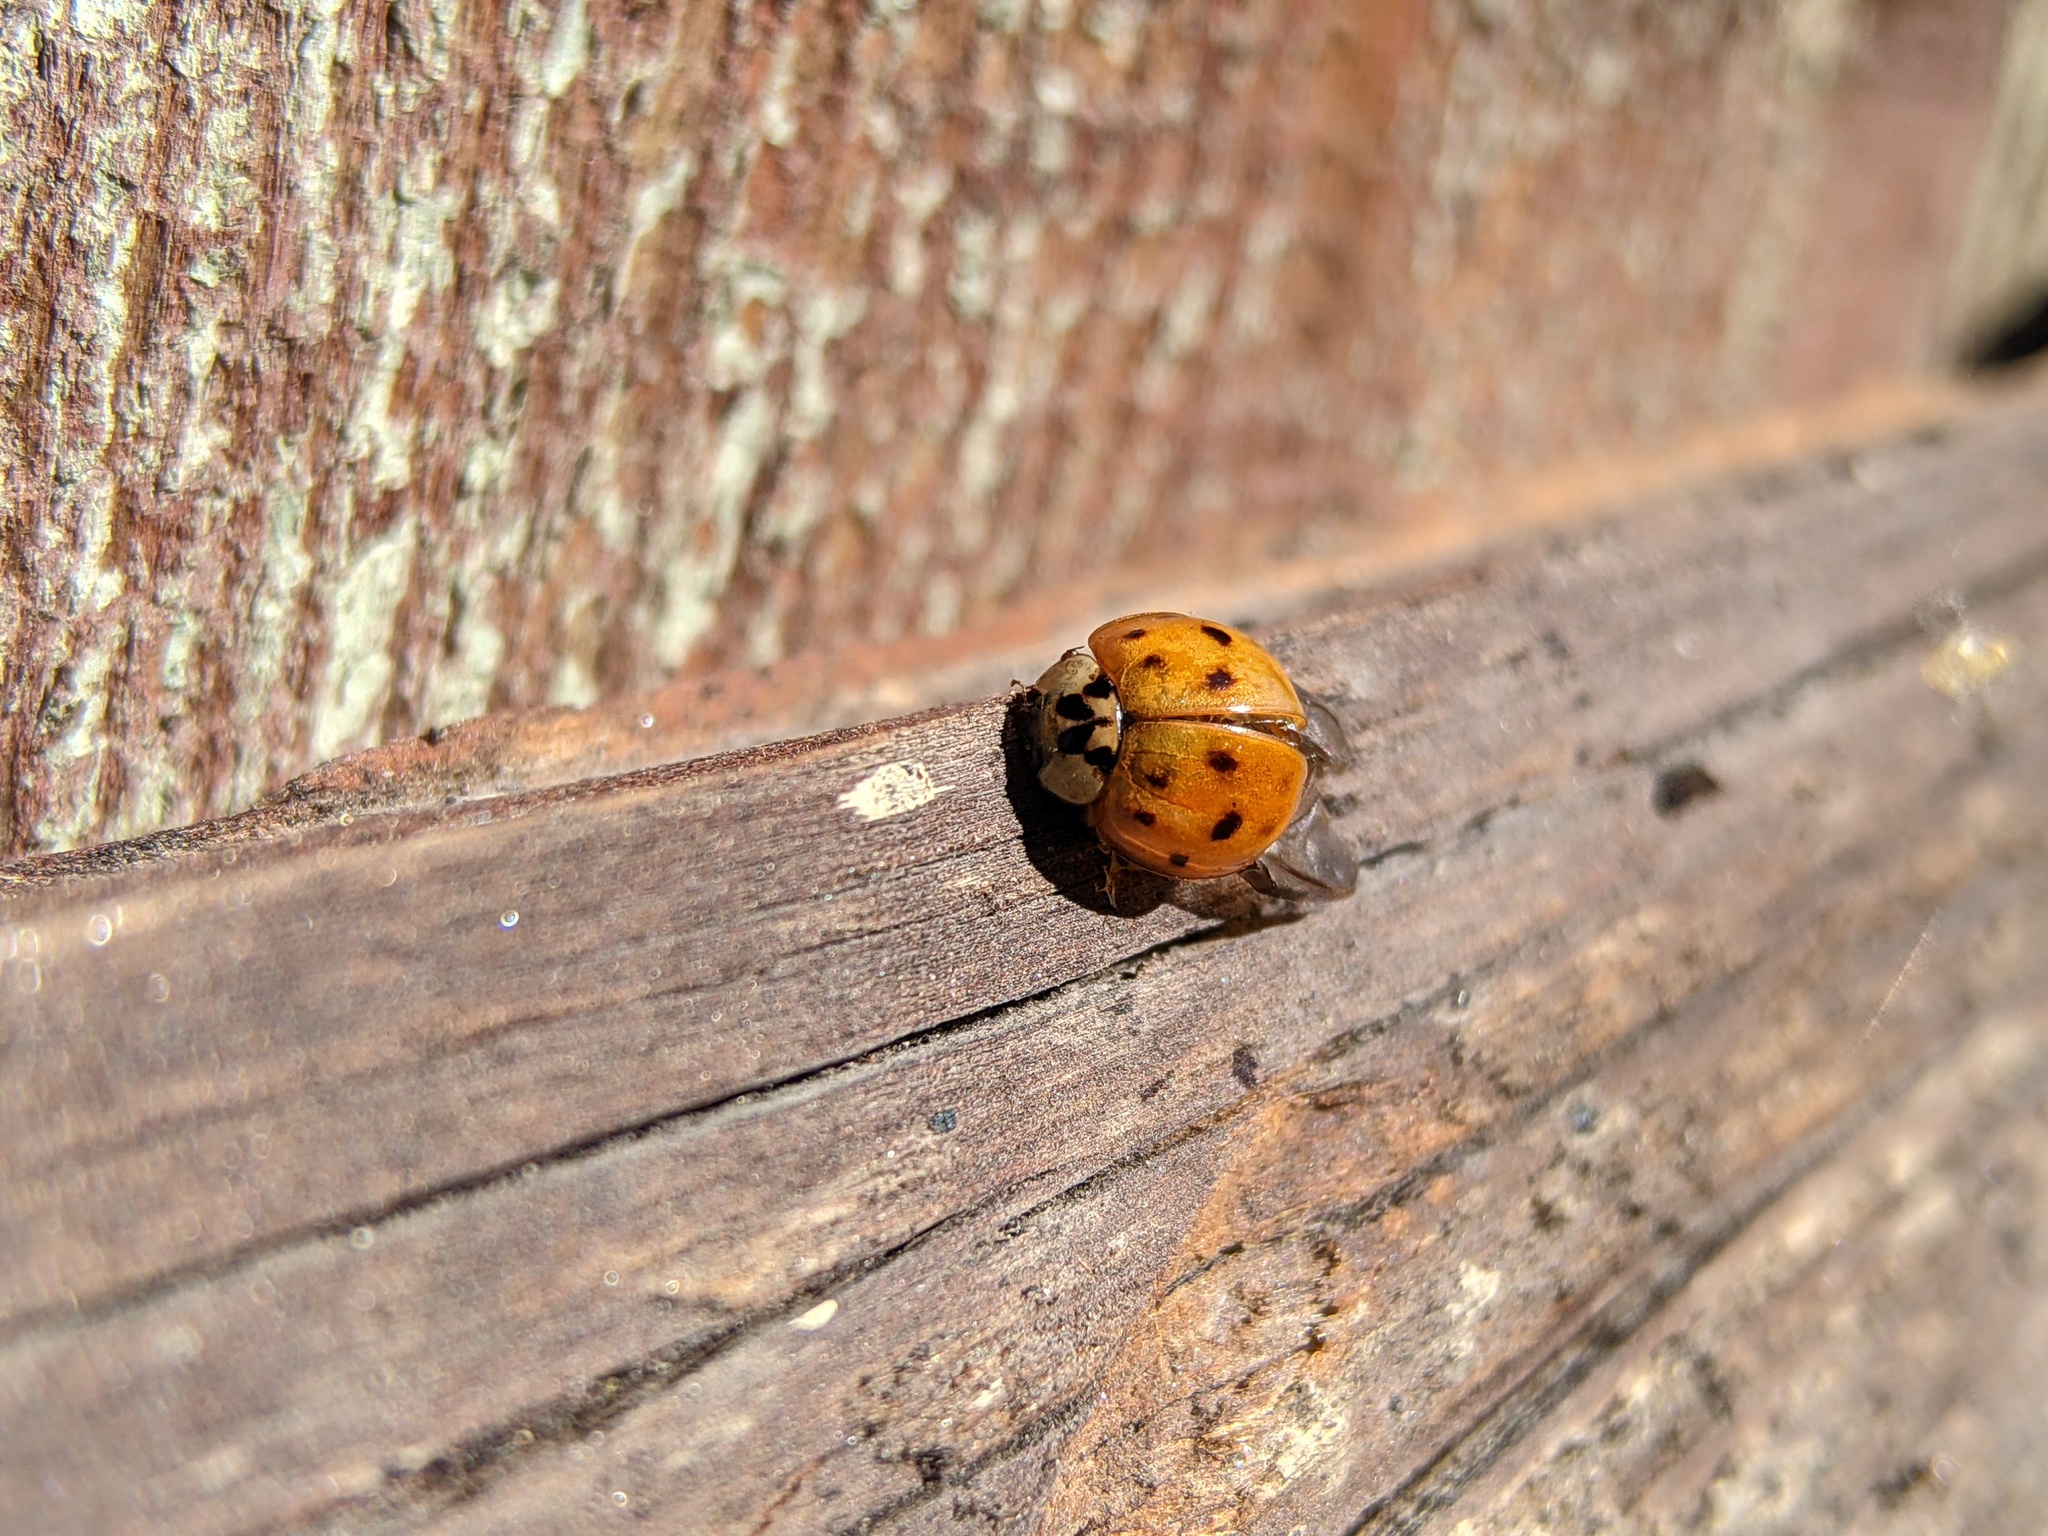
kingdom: Animalia
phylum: Arthropoda
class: Insecta
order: Coleoptera
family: Coccinellidae
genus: Harmonia
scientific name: Harmonia axyridis
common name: Harlequin ladybird
